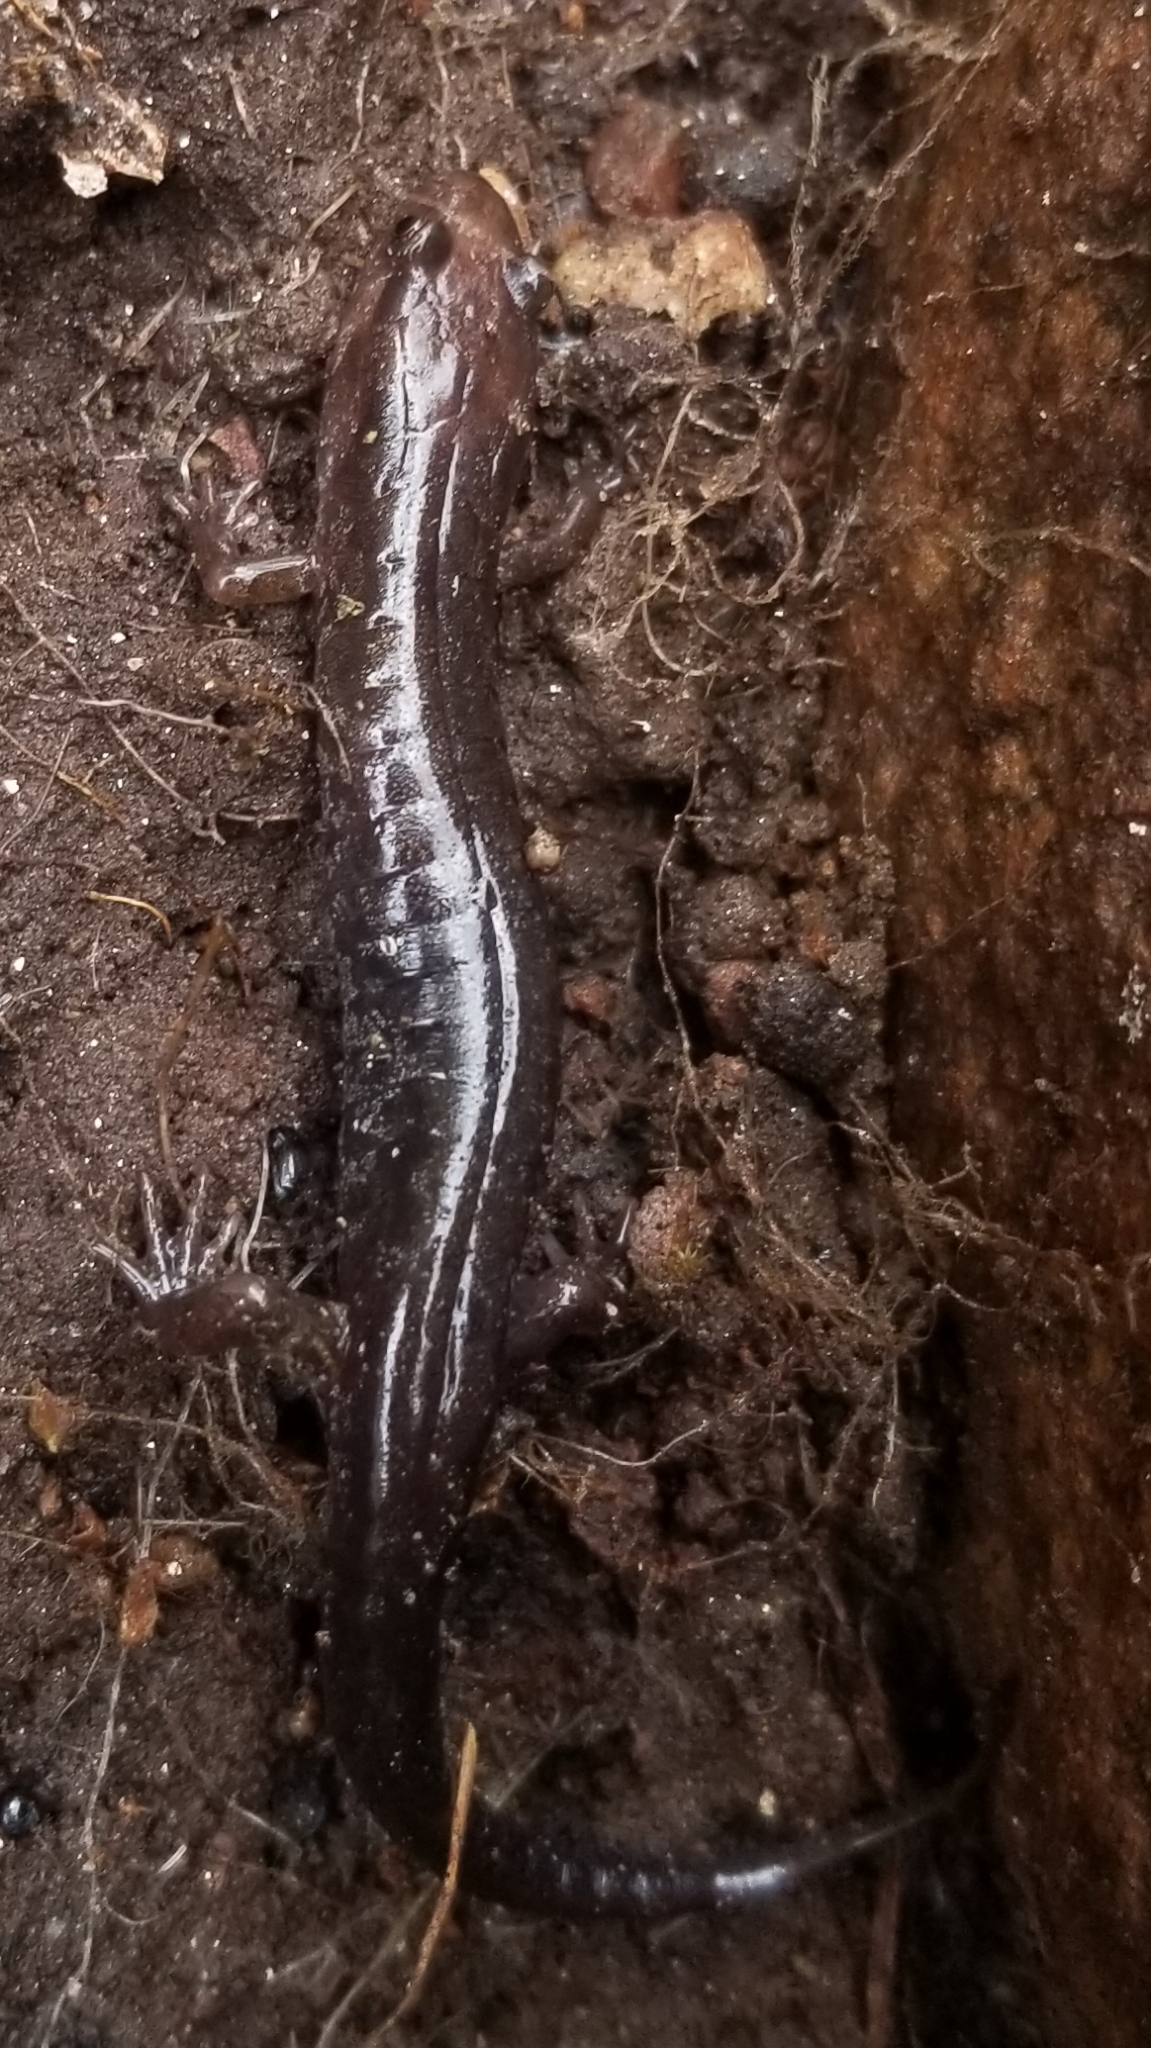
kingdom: Animalia
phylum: Chordata
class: Amphibia
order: Caudata
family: Plethodontidae
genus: Desmognathus
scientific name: Desmognathus carolinensis
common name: Carolina mountain dusky salamander
